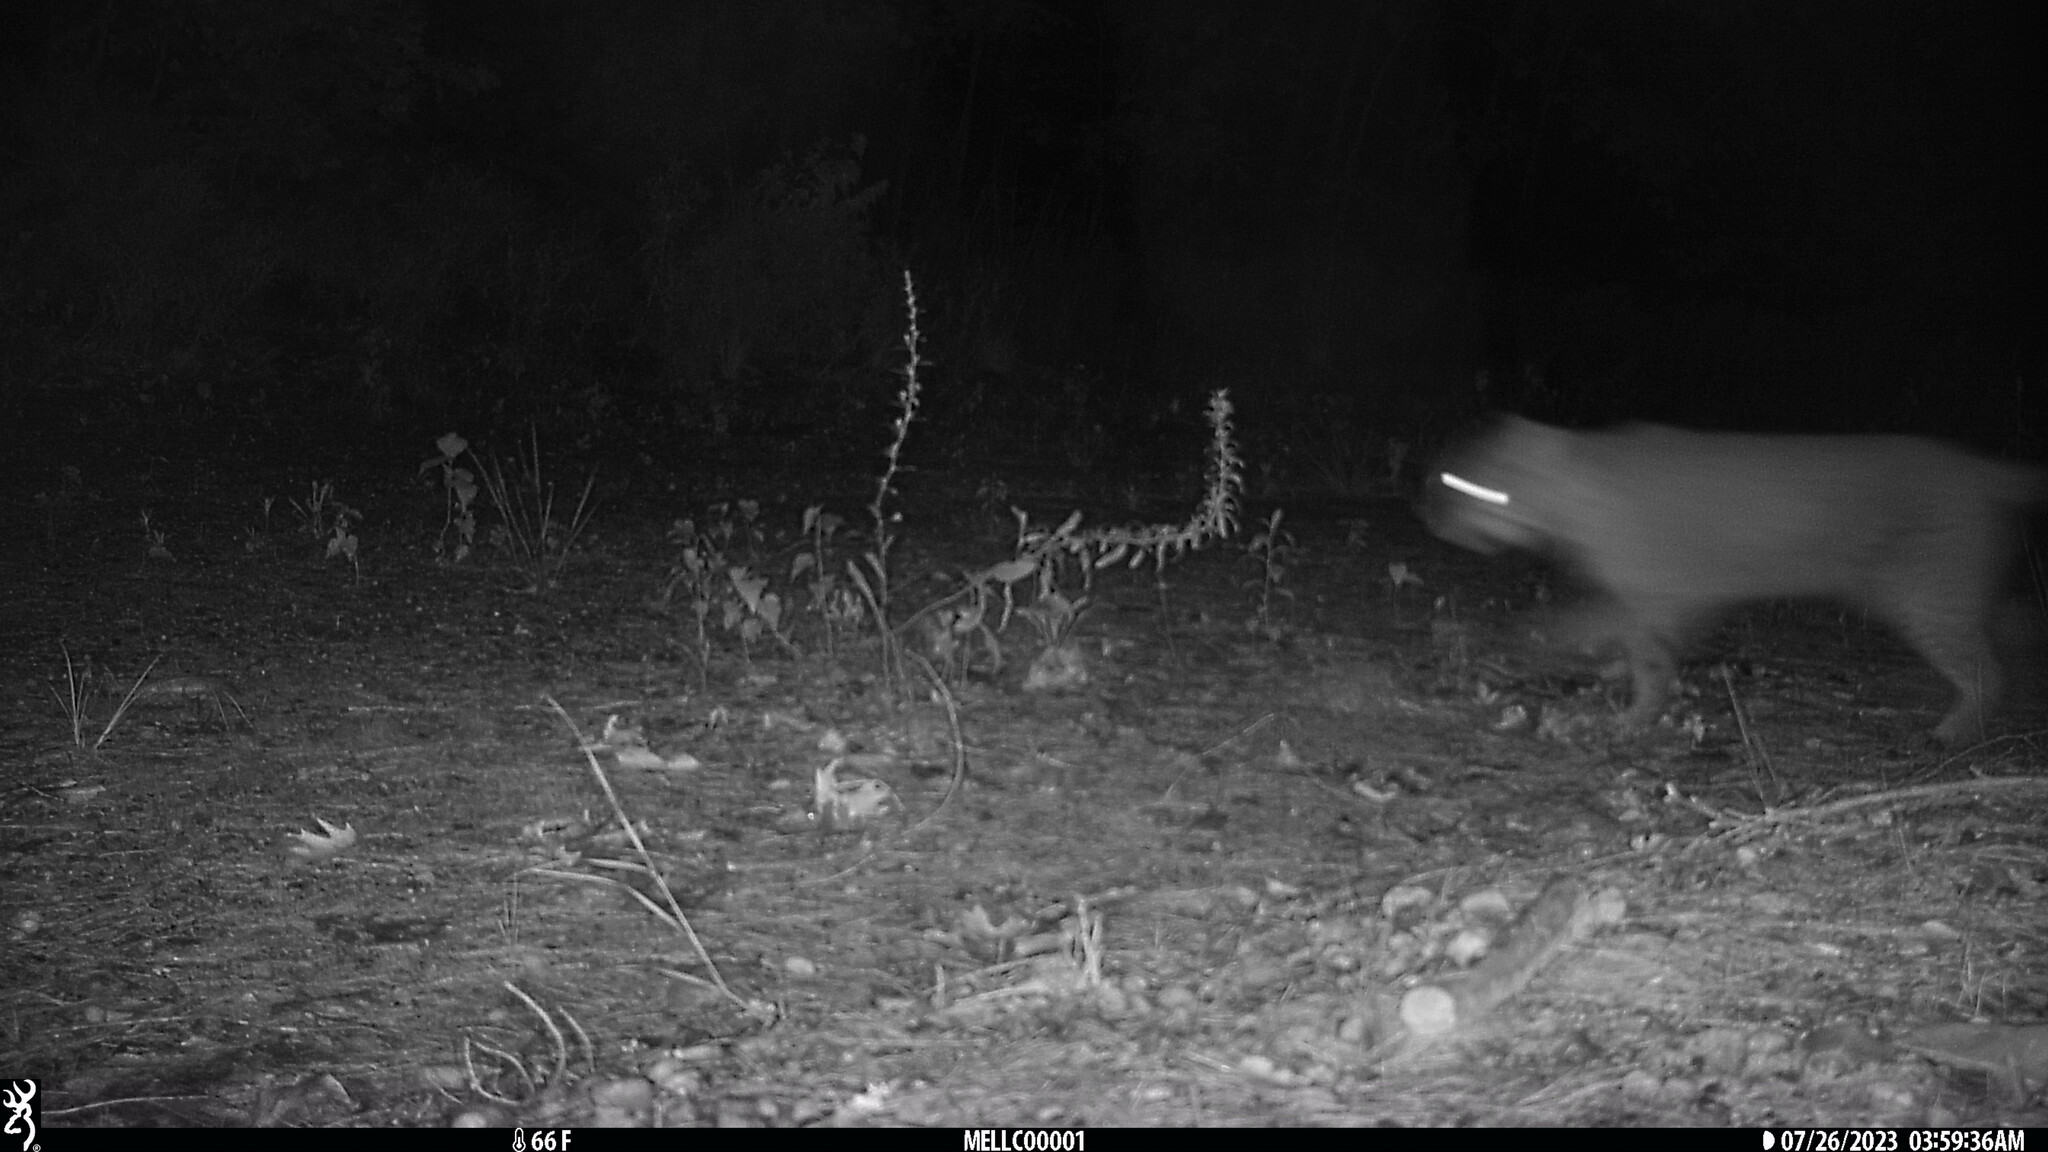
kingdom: Animalia
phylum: Chordata
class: Mammalia
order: Carnivora
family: Felidae
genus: Lynx
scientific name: Lynx rufus
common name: Bobcat
